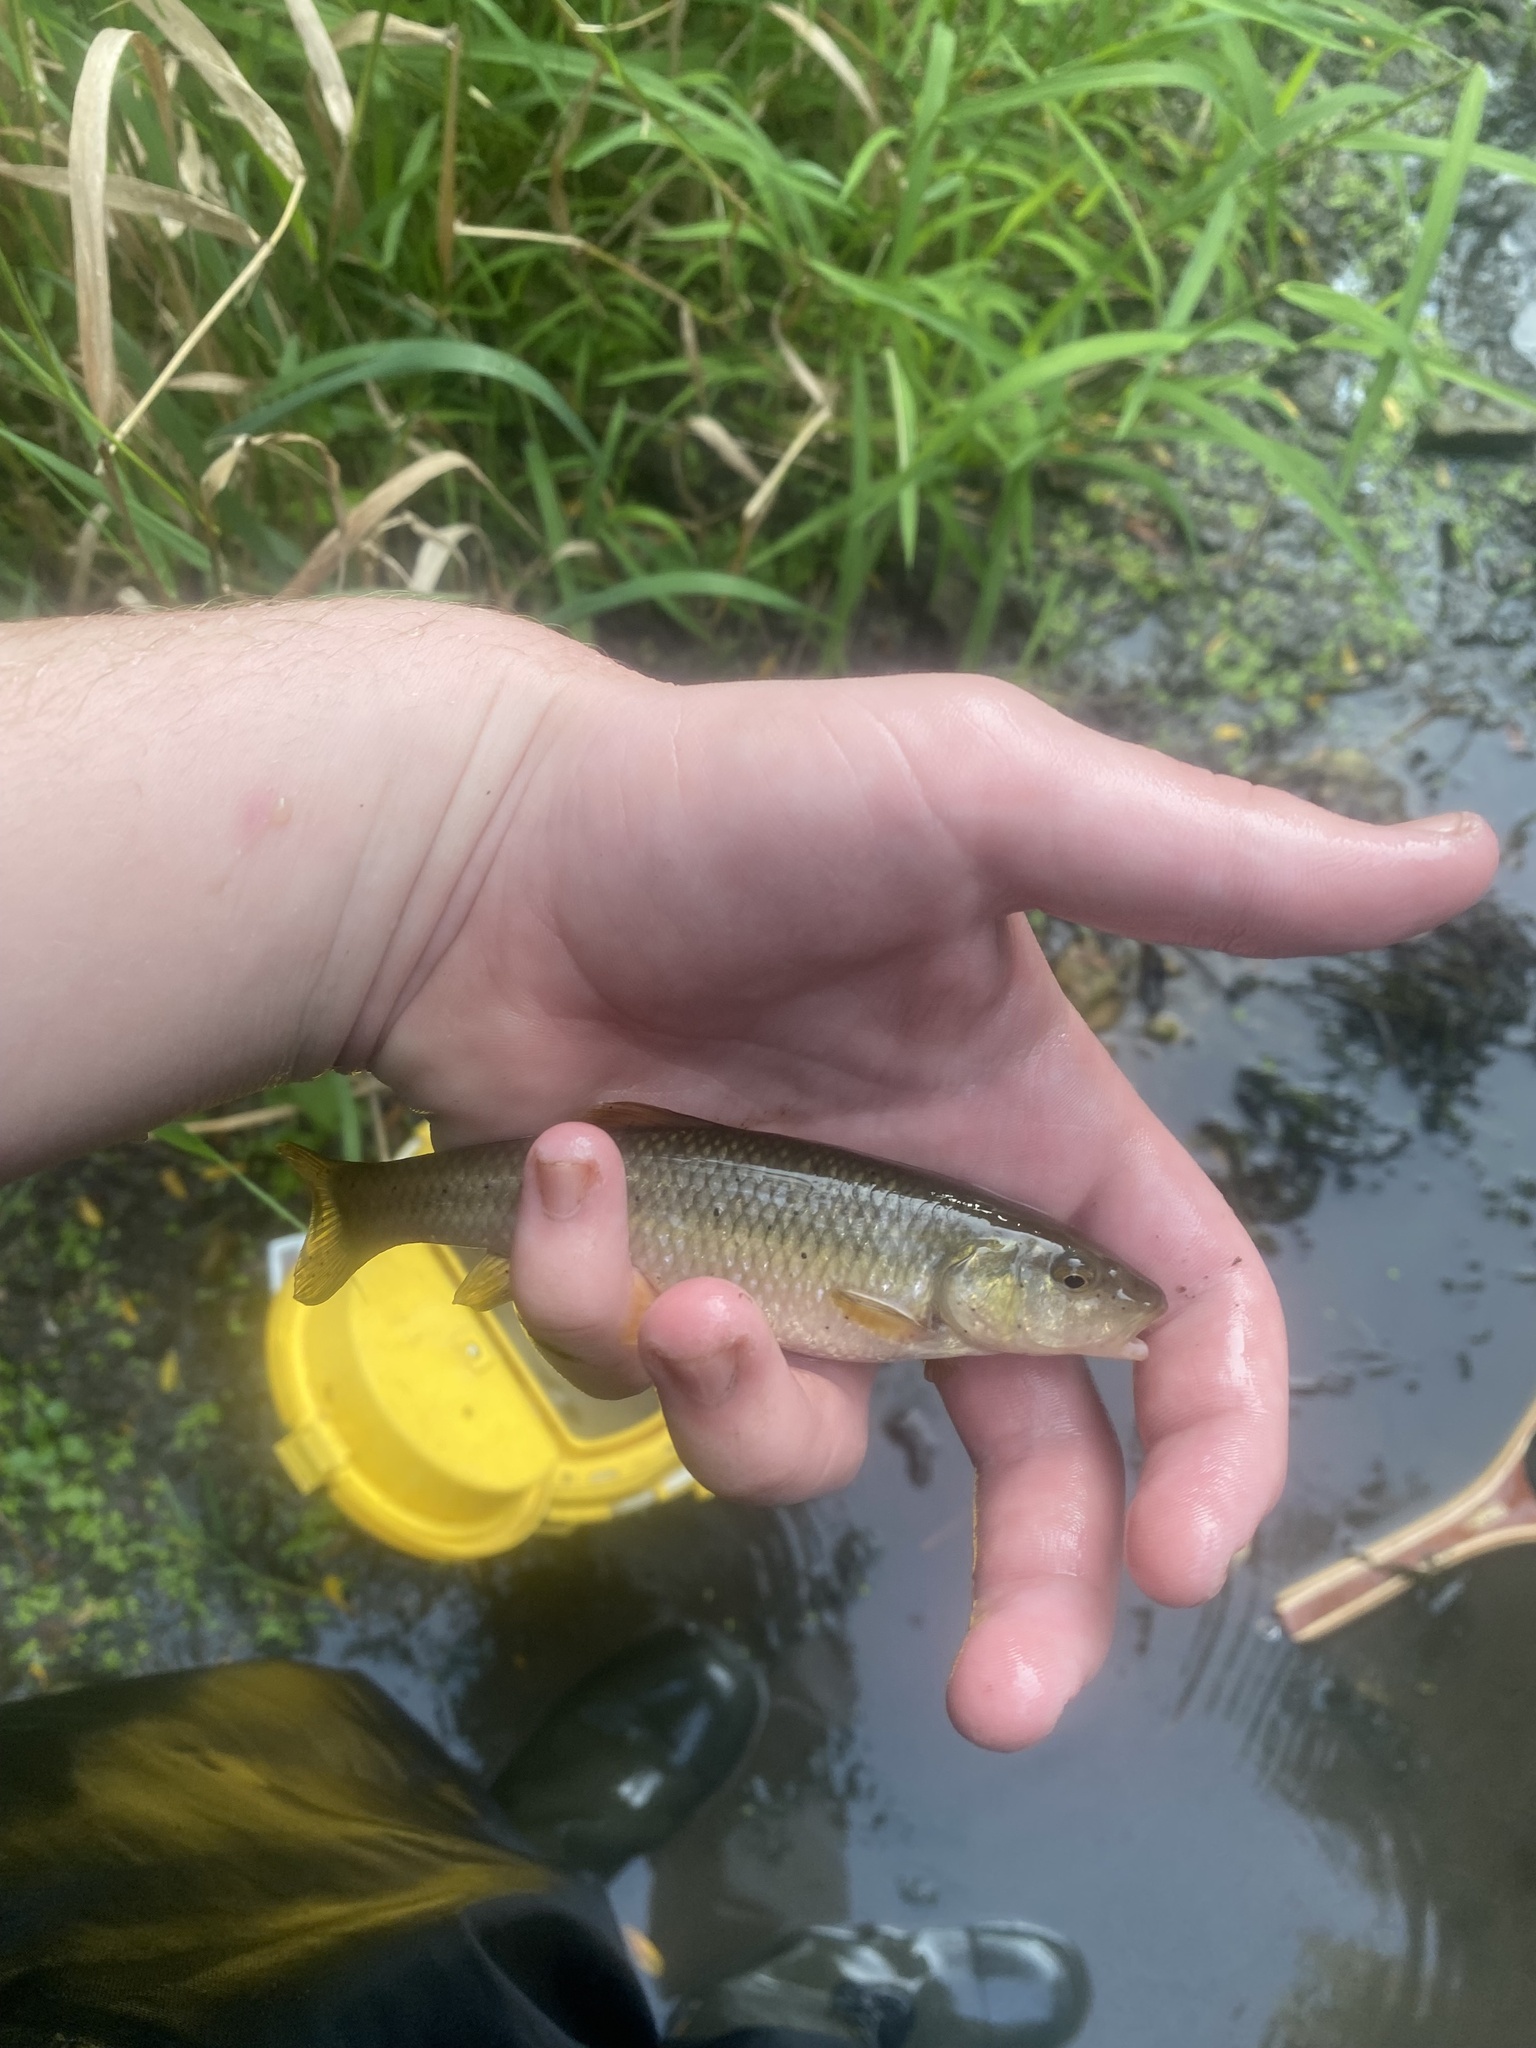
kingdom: Animalia
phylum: Chordata
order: Cypriniformes
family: Cyprinidae
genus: Nocomis
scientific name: Nocomis biguttatus
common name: Hornyhead chub
